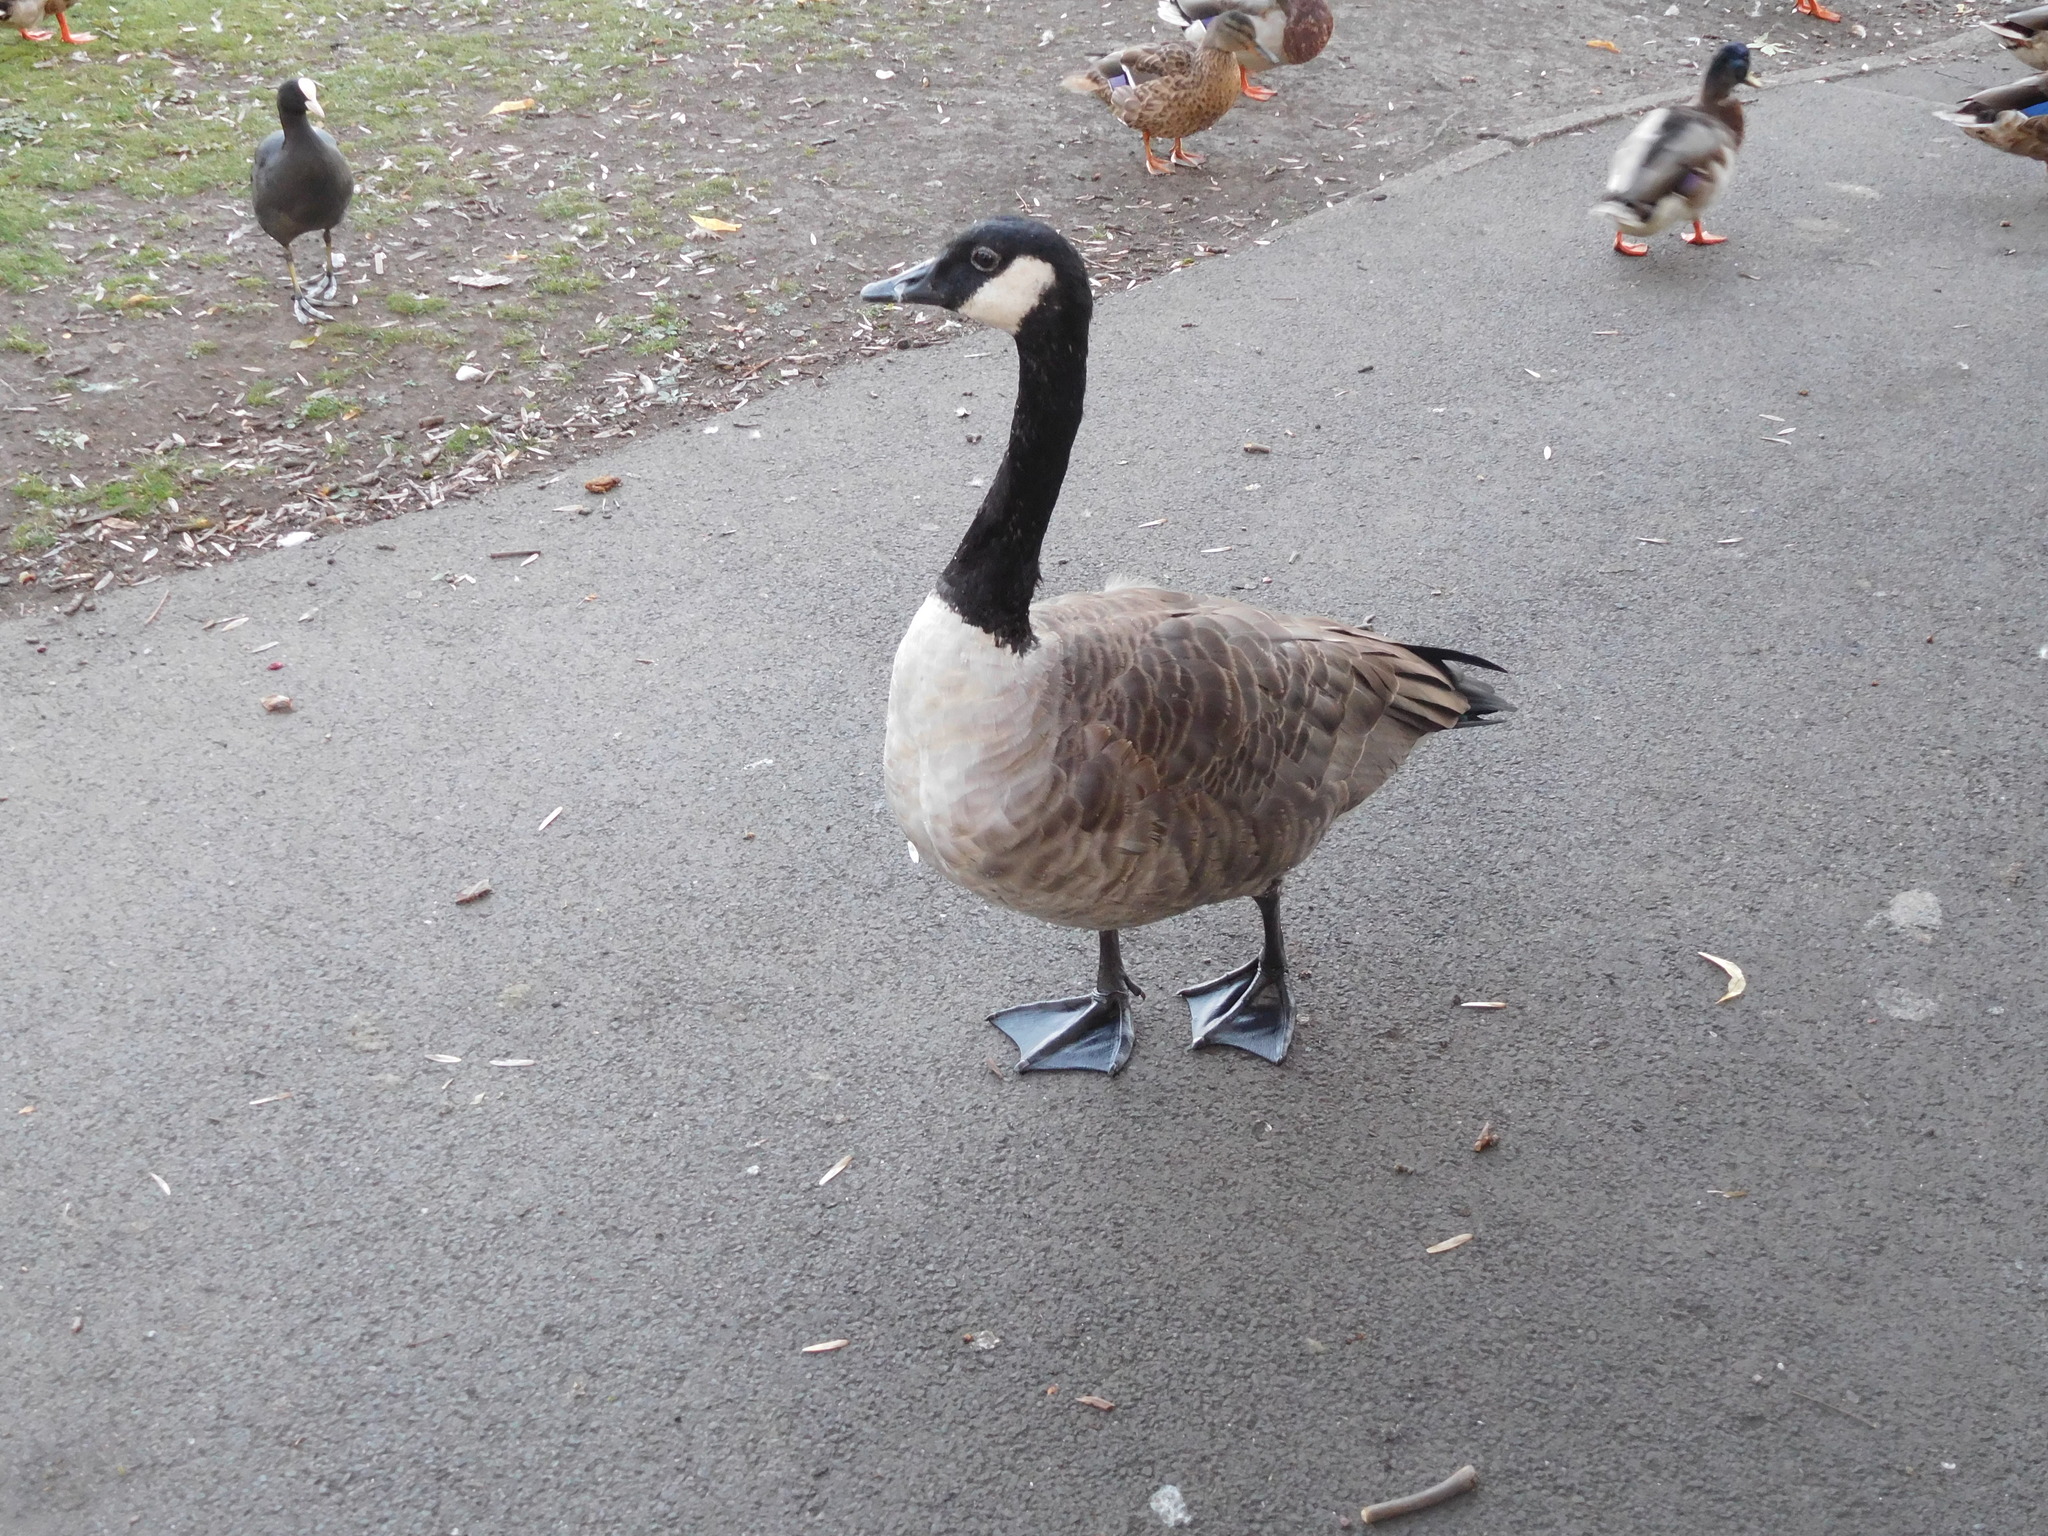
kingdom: Animalia
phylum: Chordata
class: Aves
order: Anseriformes
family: Anatidae
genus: Branta
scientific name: Branta canadensis
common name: Canada goose
